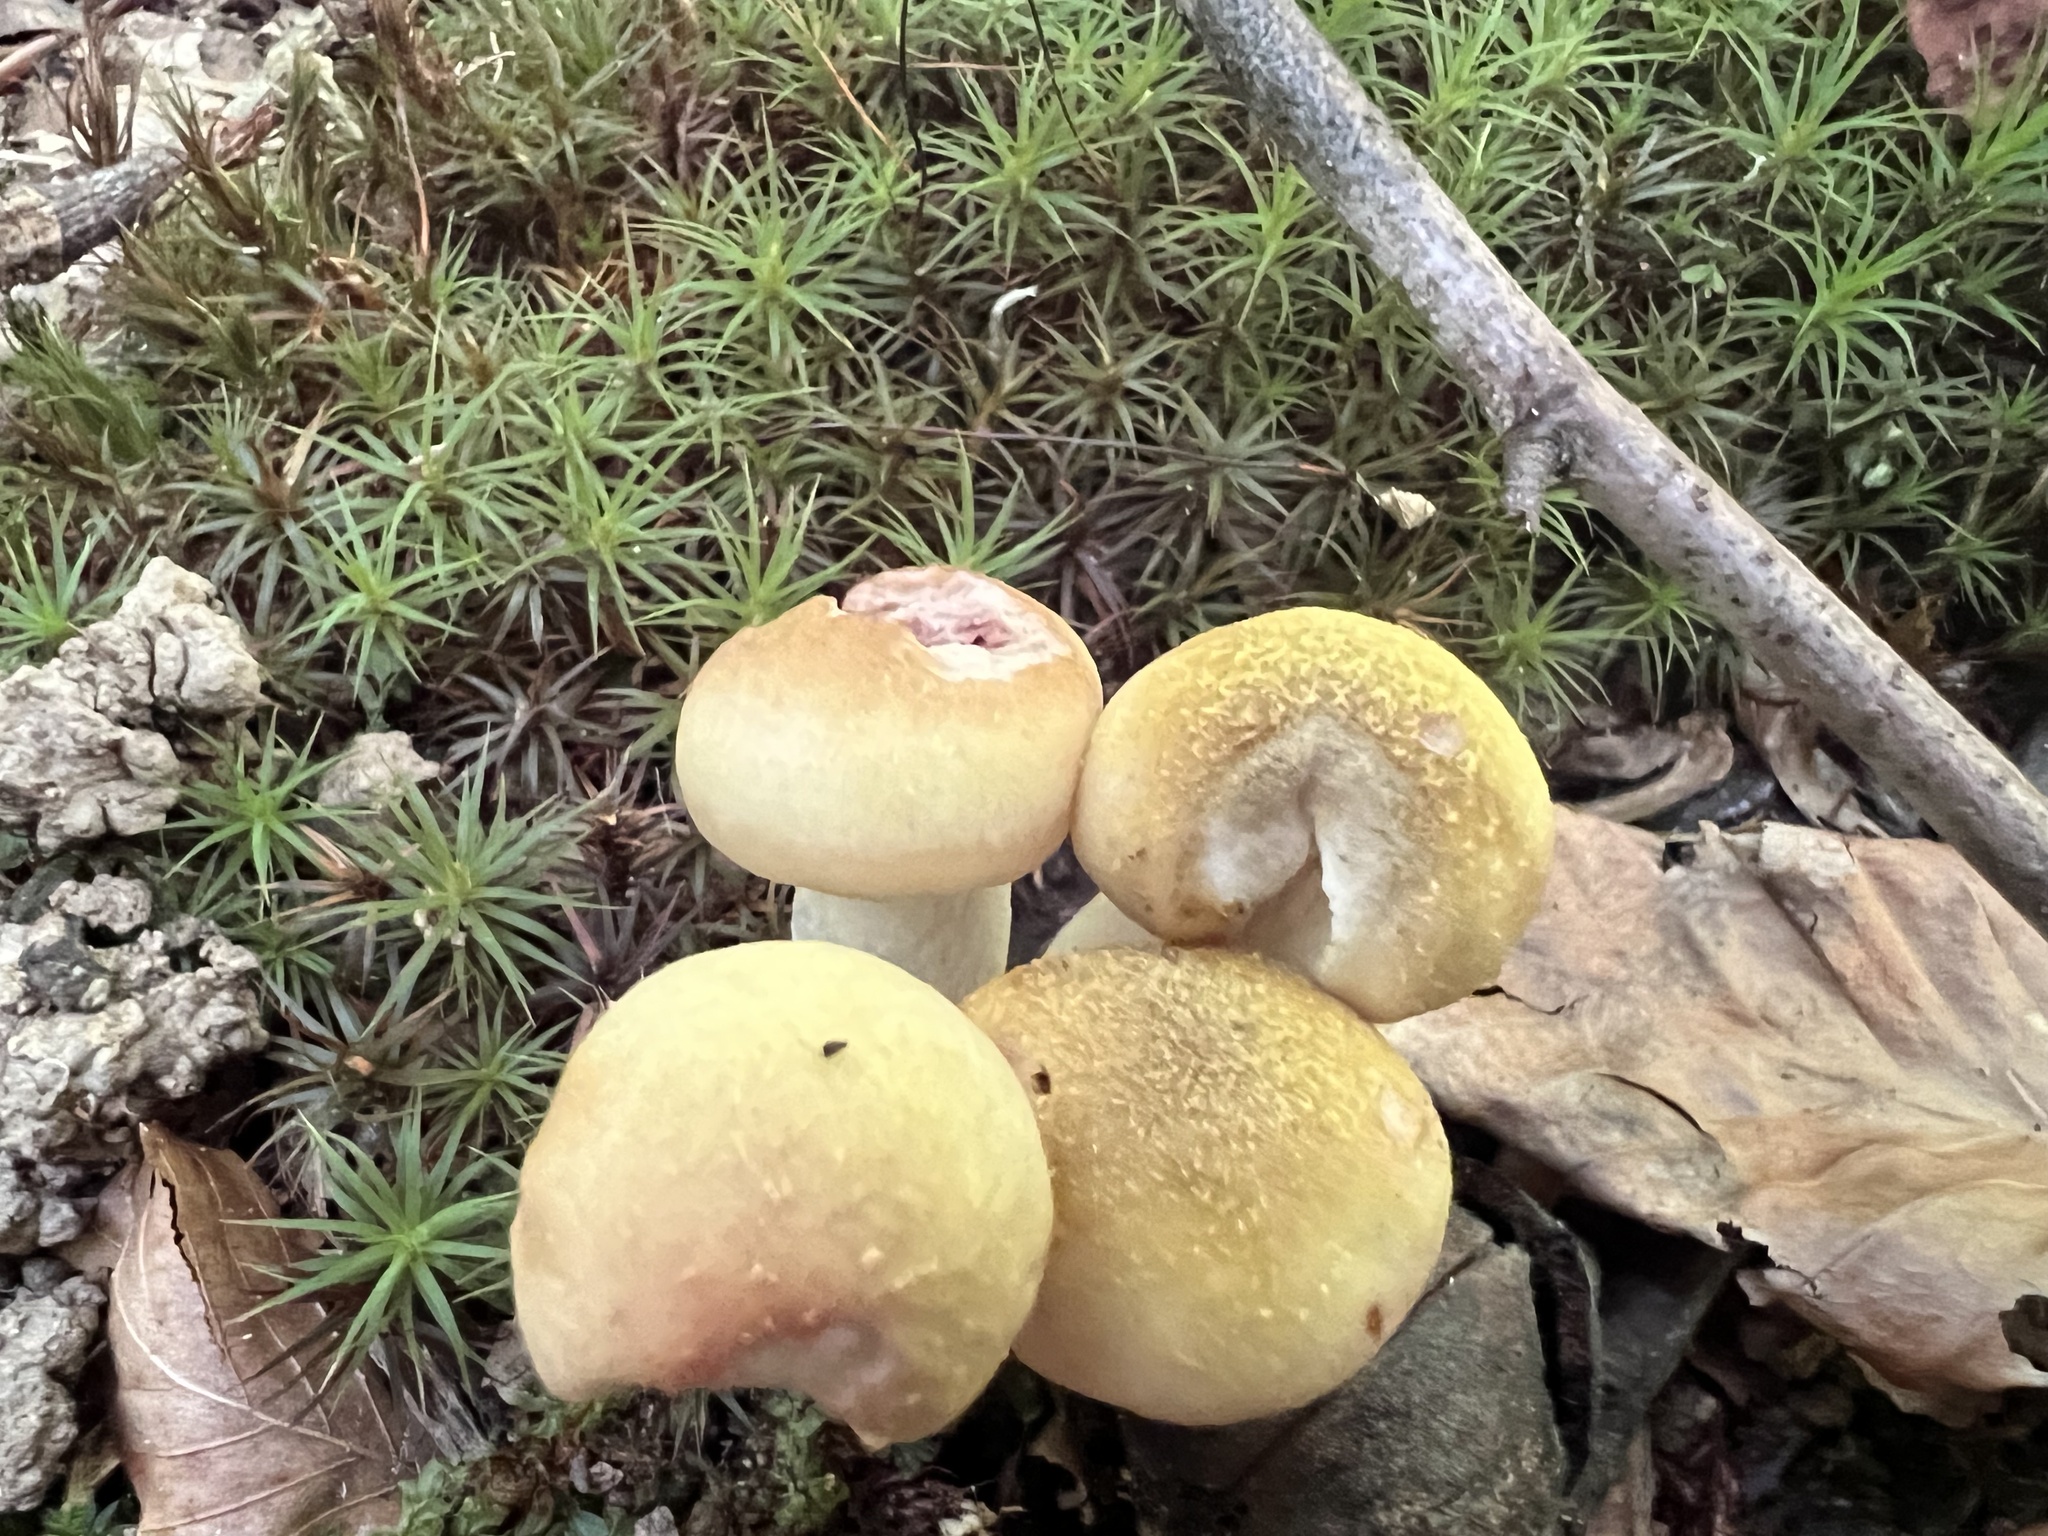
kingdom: Fungi
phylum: Basidiomycota
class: Agaricomycetes
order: Agaricales
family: Physalacriaceae
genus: Armillaria
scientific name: Armillaria mellea
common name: Honey fungus
